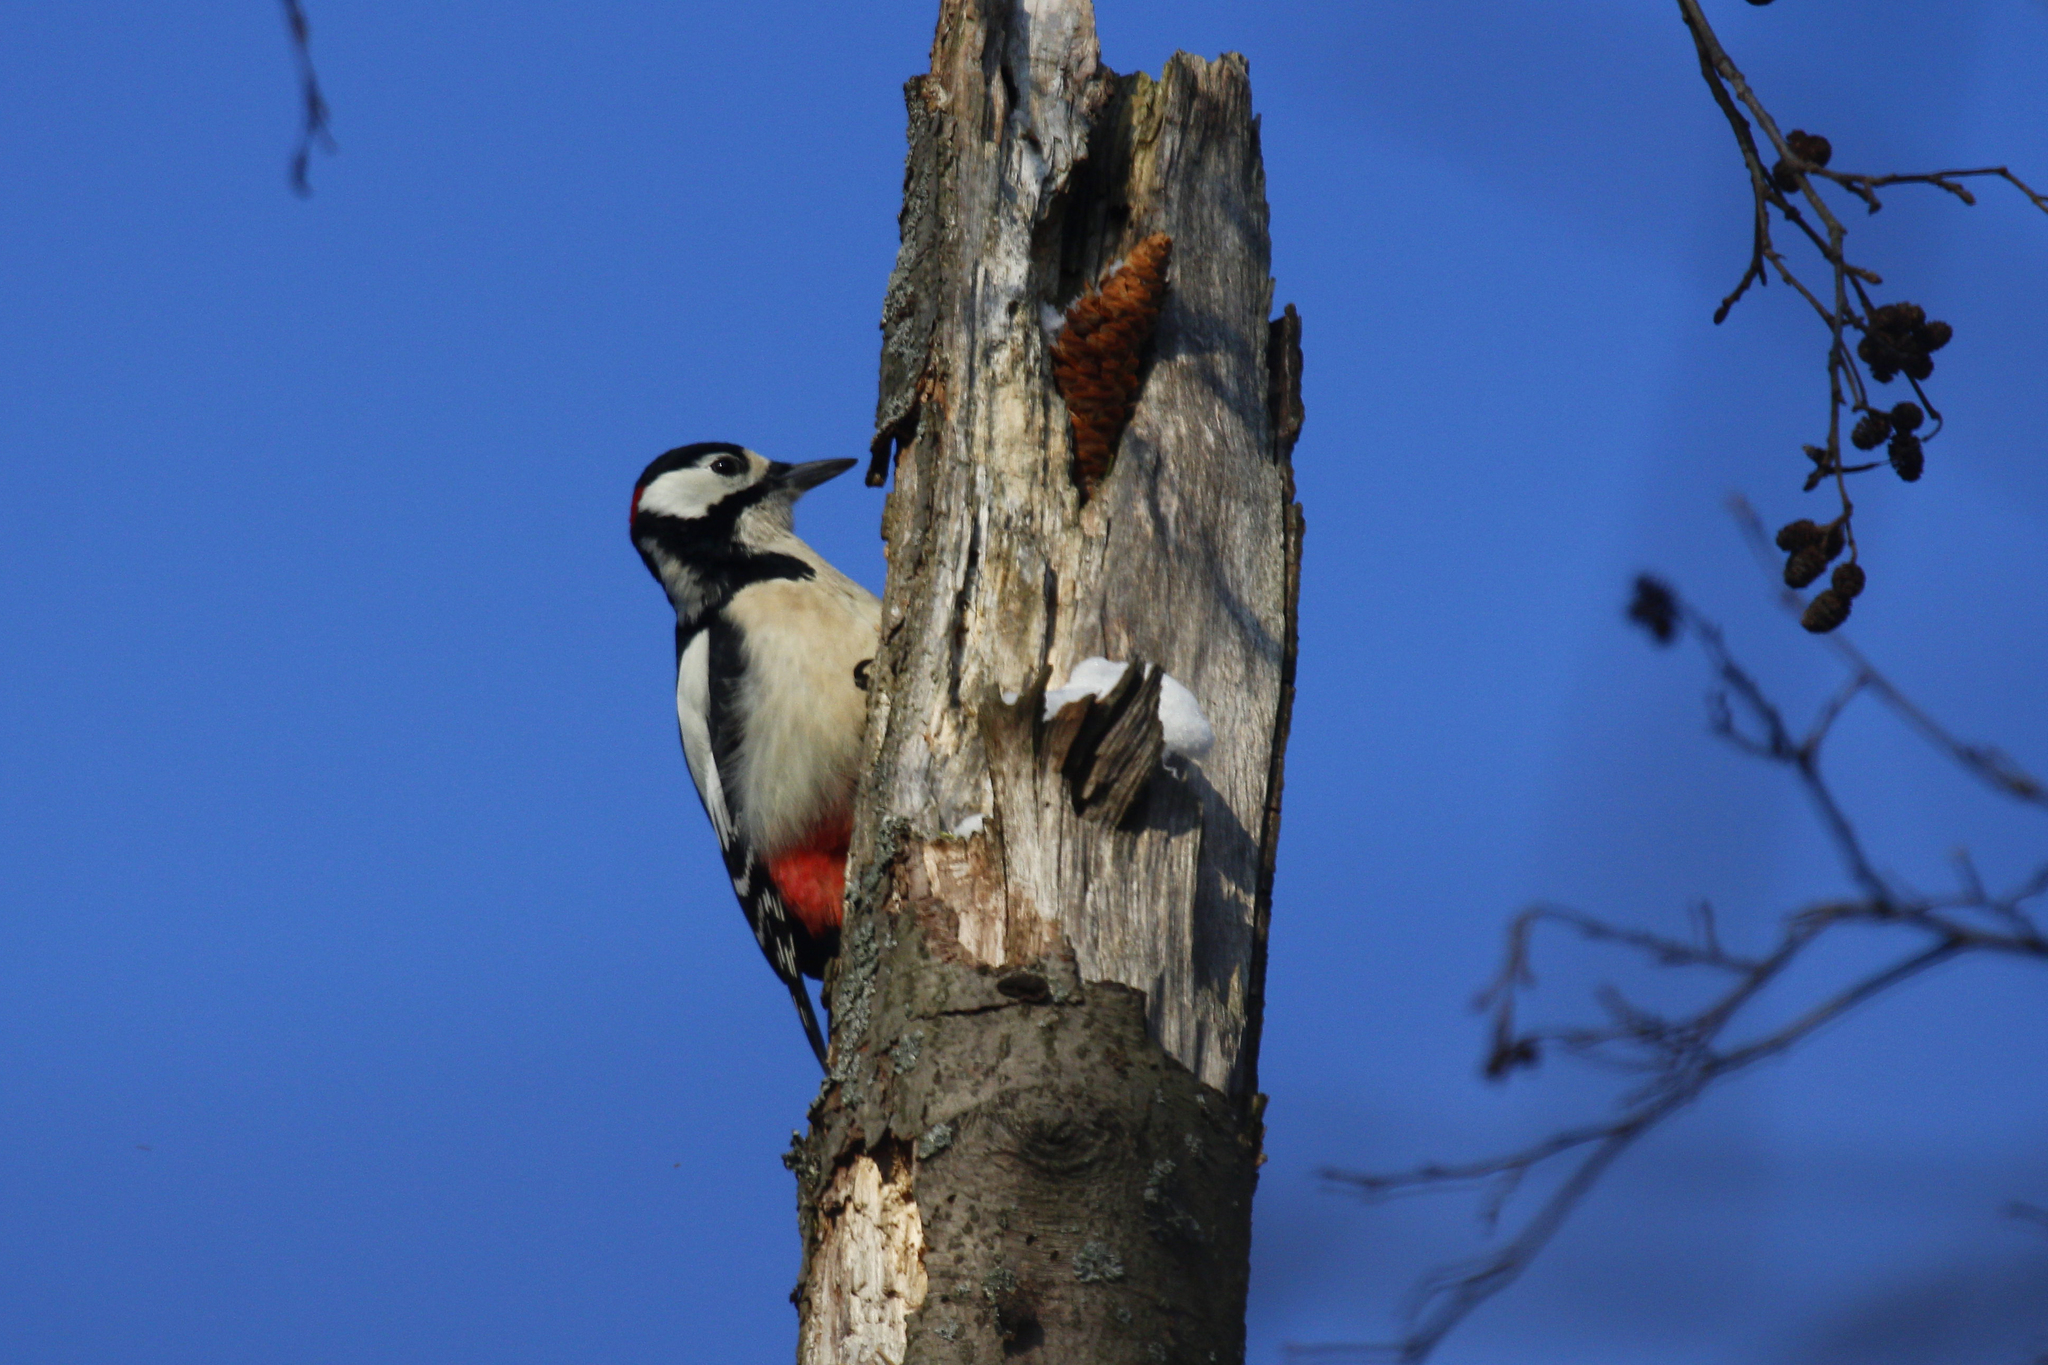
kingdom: Animalia
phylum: Chordata
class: Aves
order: Piciformes
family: Picidae
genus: Dendrocopos
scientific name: Dendrocopos major
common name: Great spotted woodpecker
